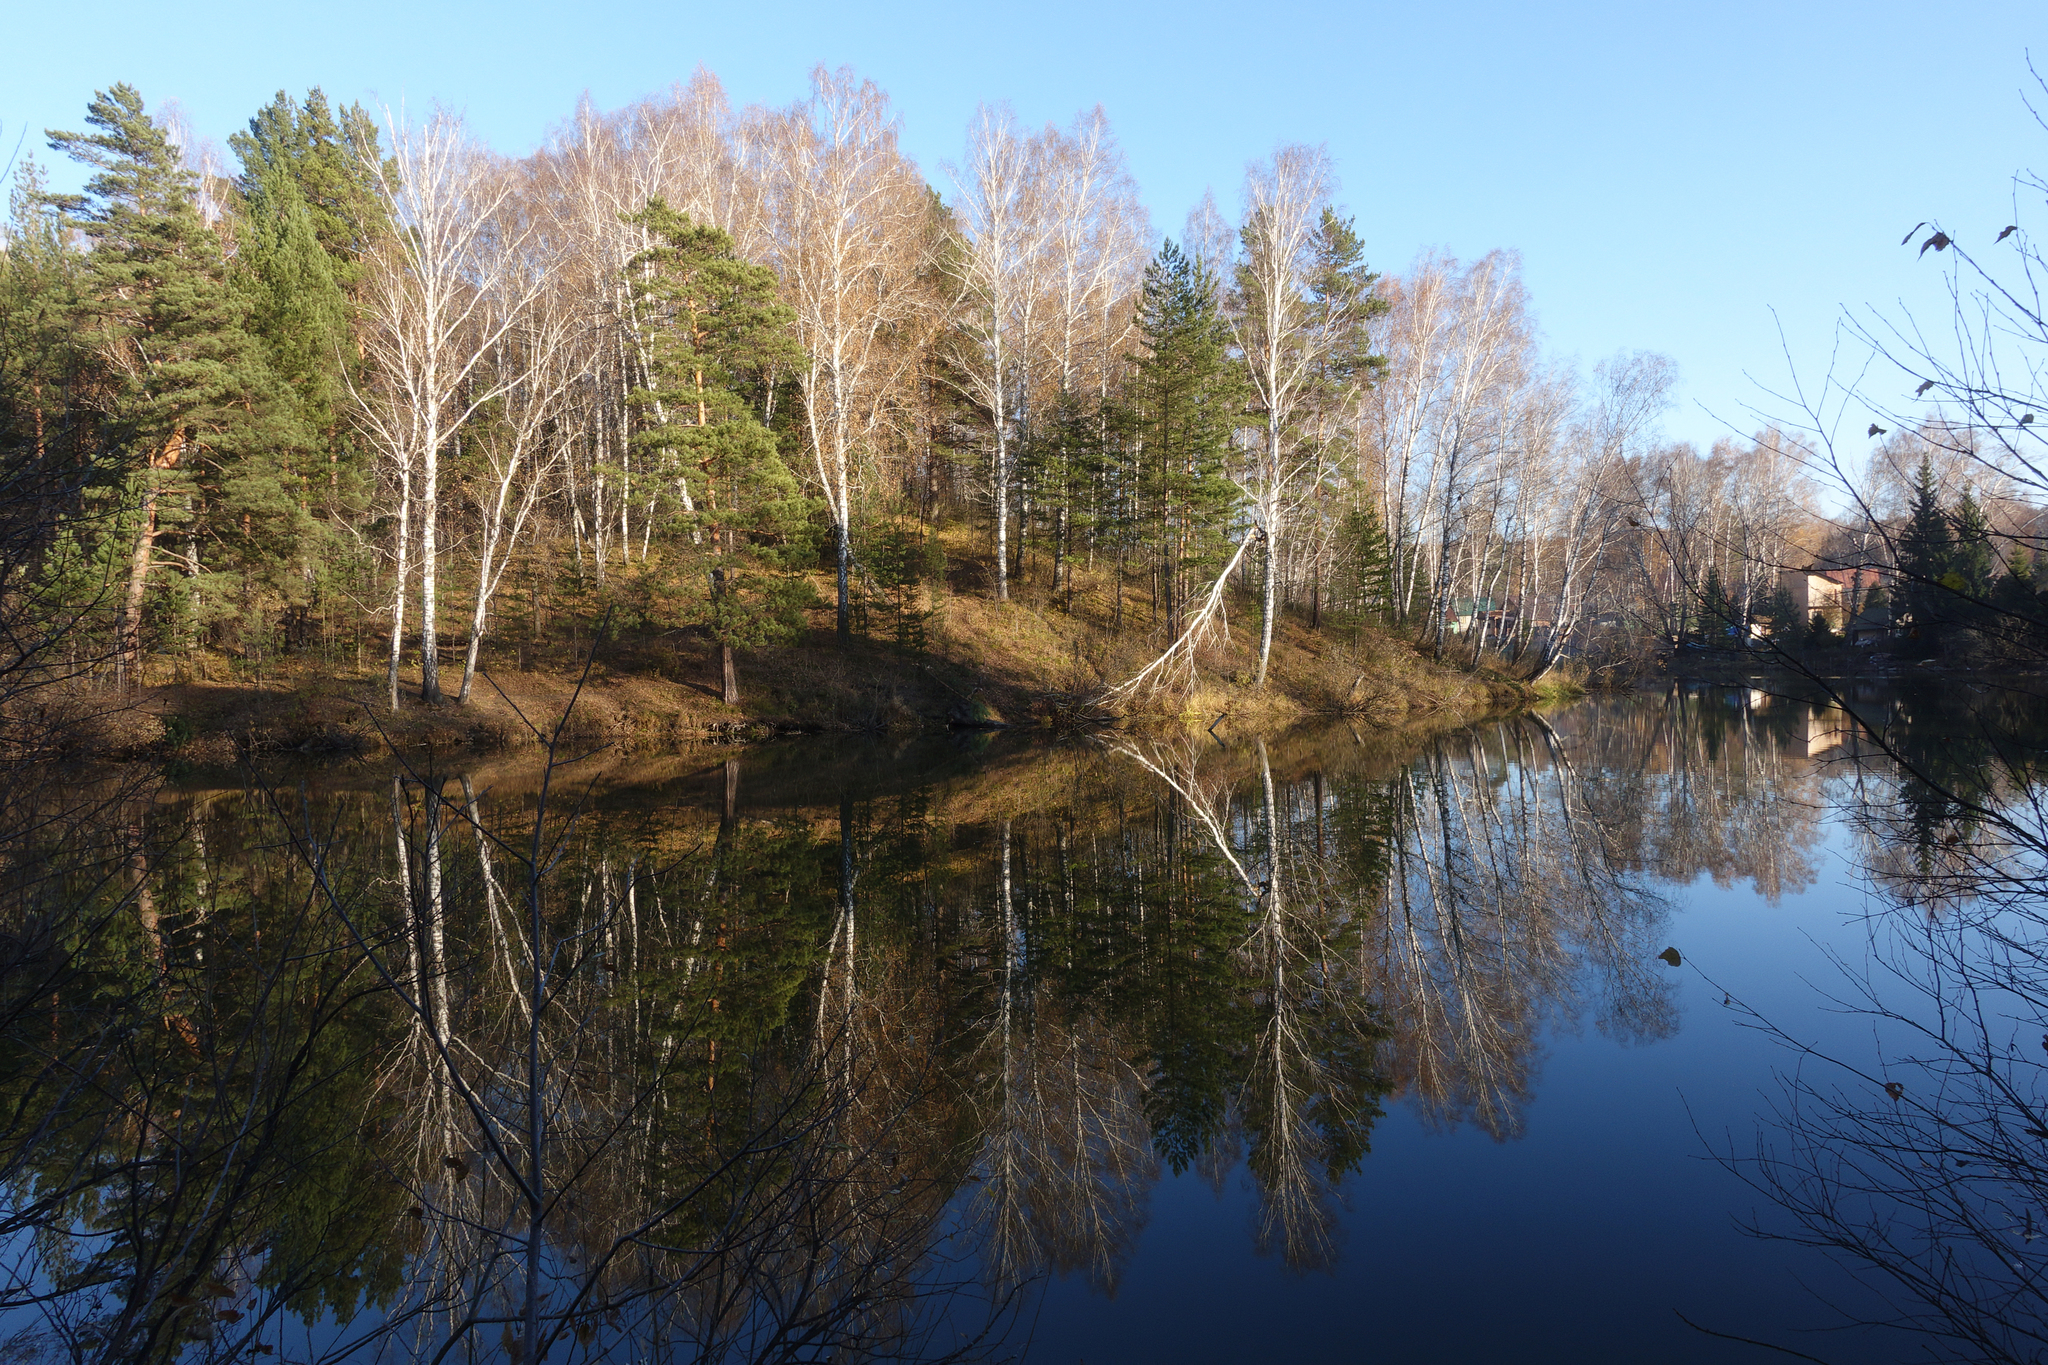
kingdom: Plantae
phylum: Tracheophyta
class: Pinopsida
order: Pinales
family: Pinaceae
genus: Pinus
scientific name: Pinus sylvestris
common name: Scots pine
